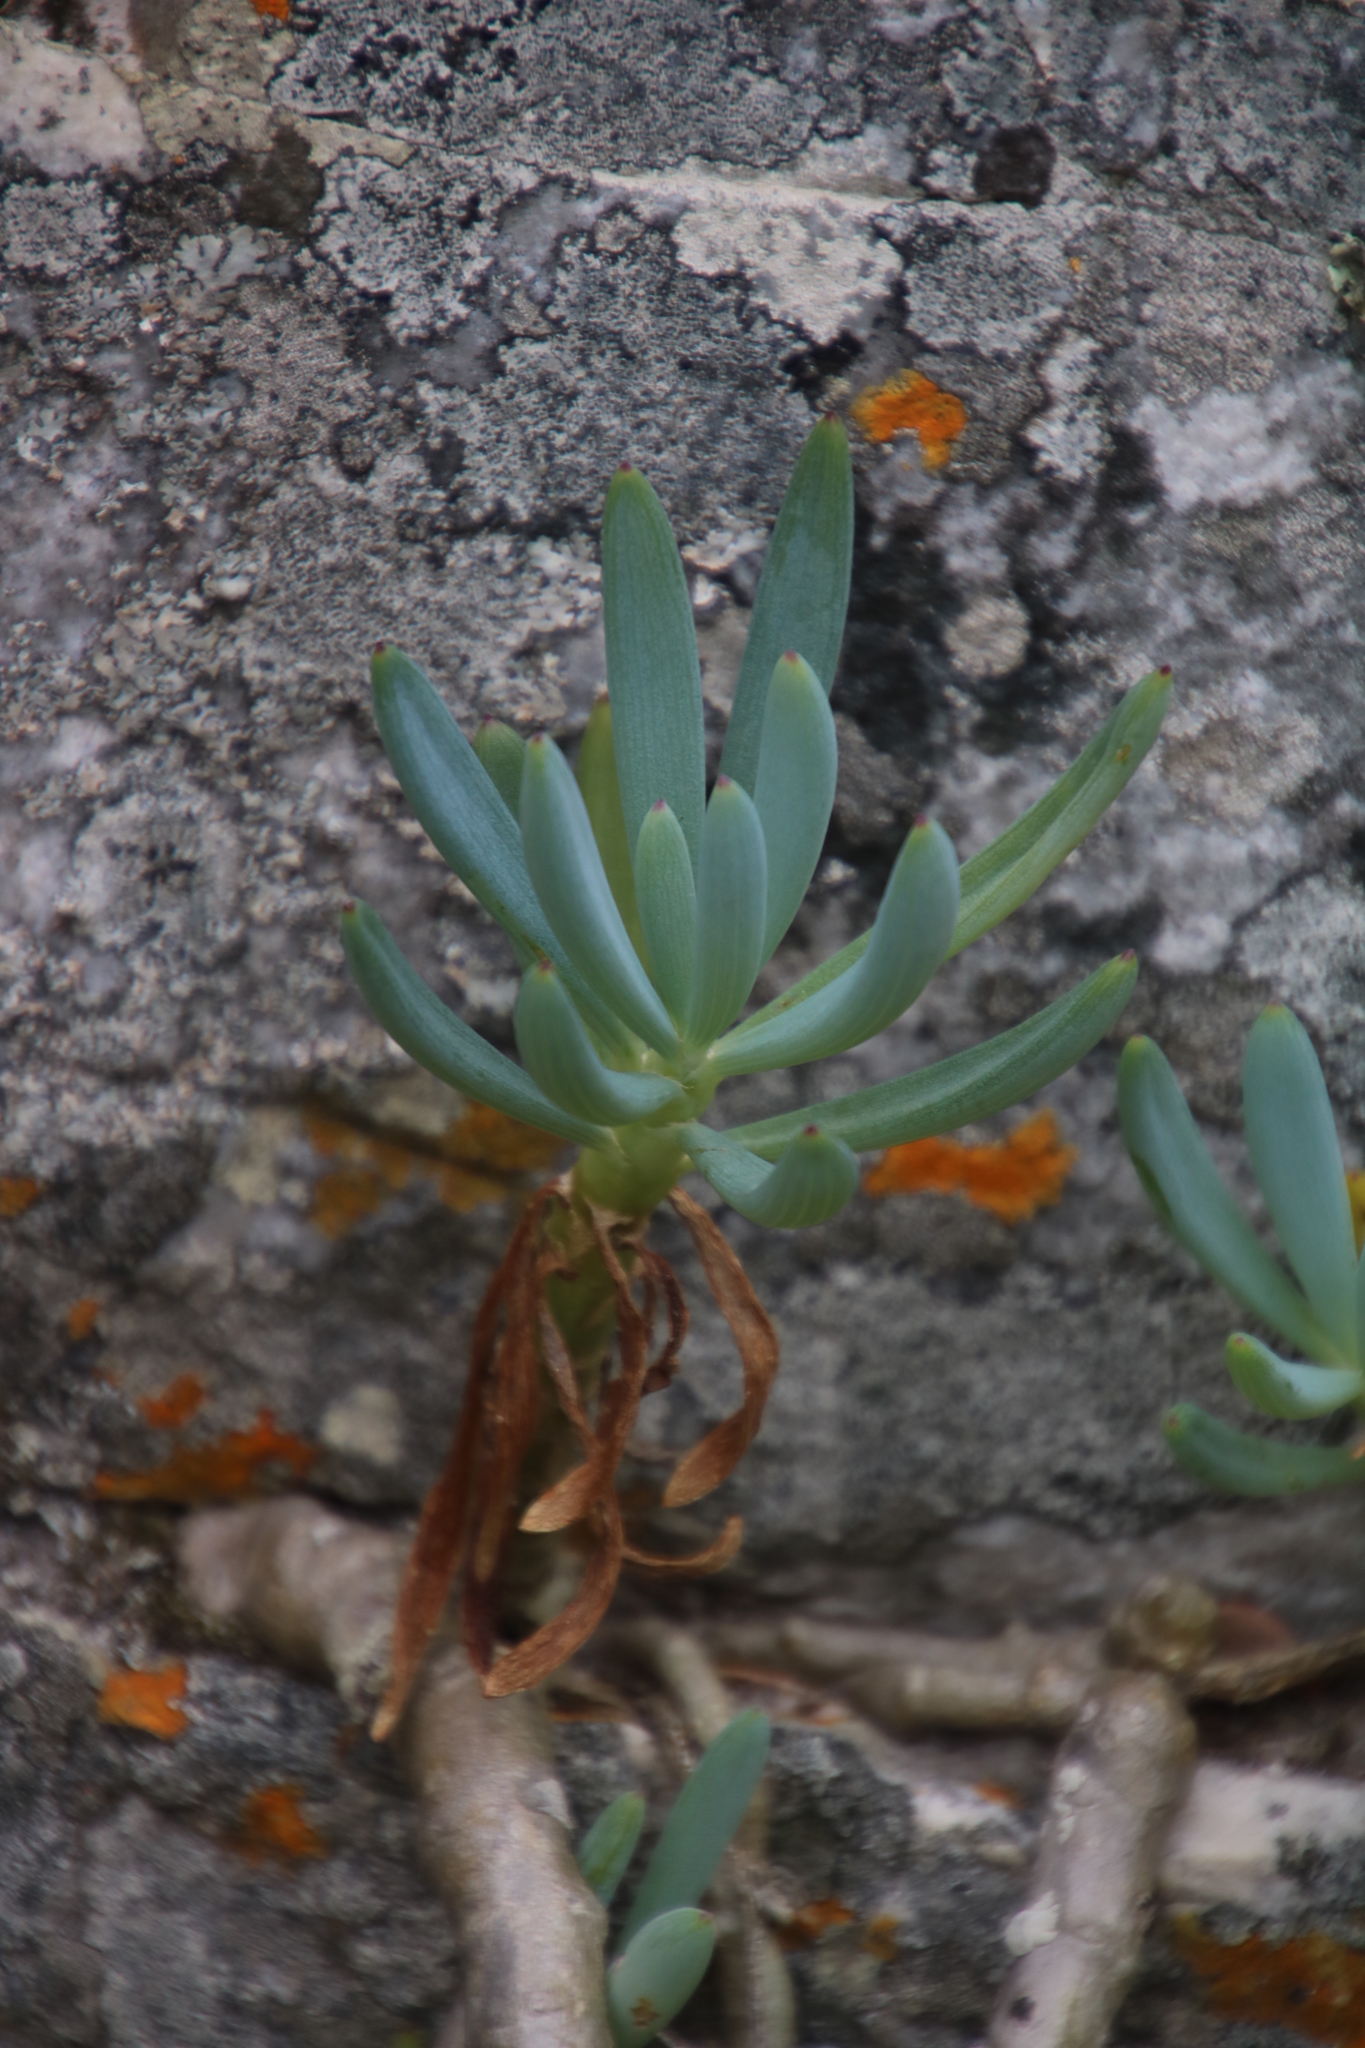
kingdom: Plantae
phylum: Tracheophyta
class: Magnoliopsida
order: Asterales
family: Asteraceae
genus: Curio
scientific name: Curio crassulifolius
